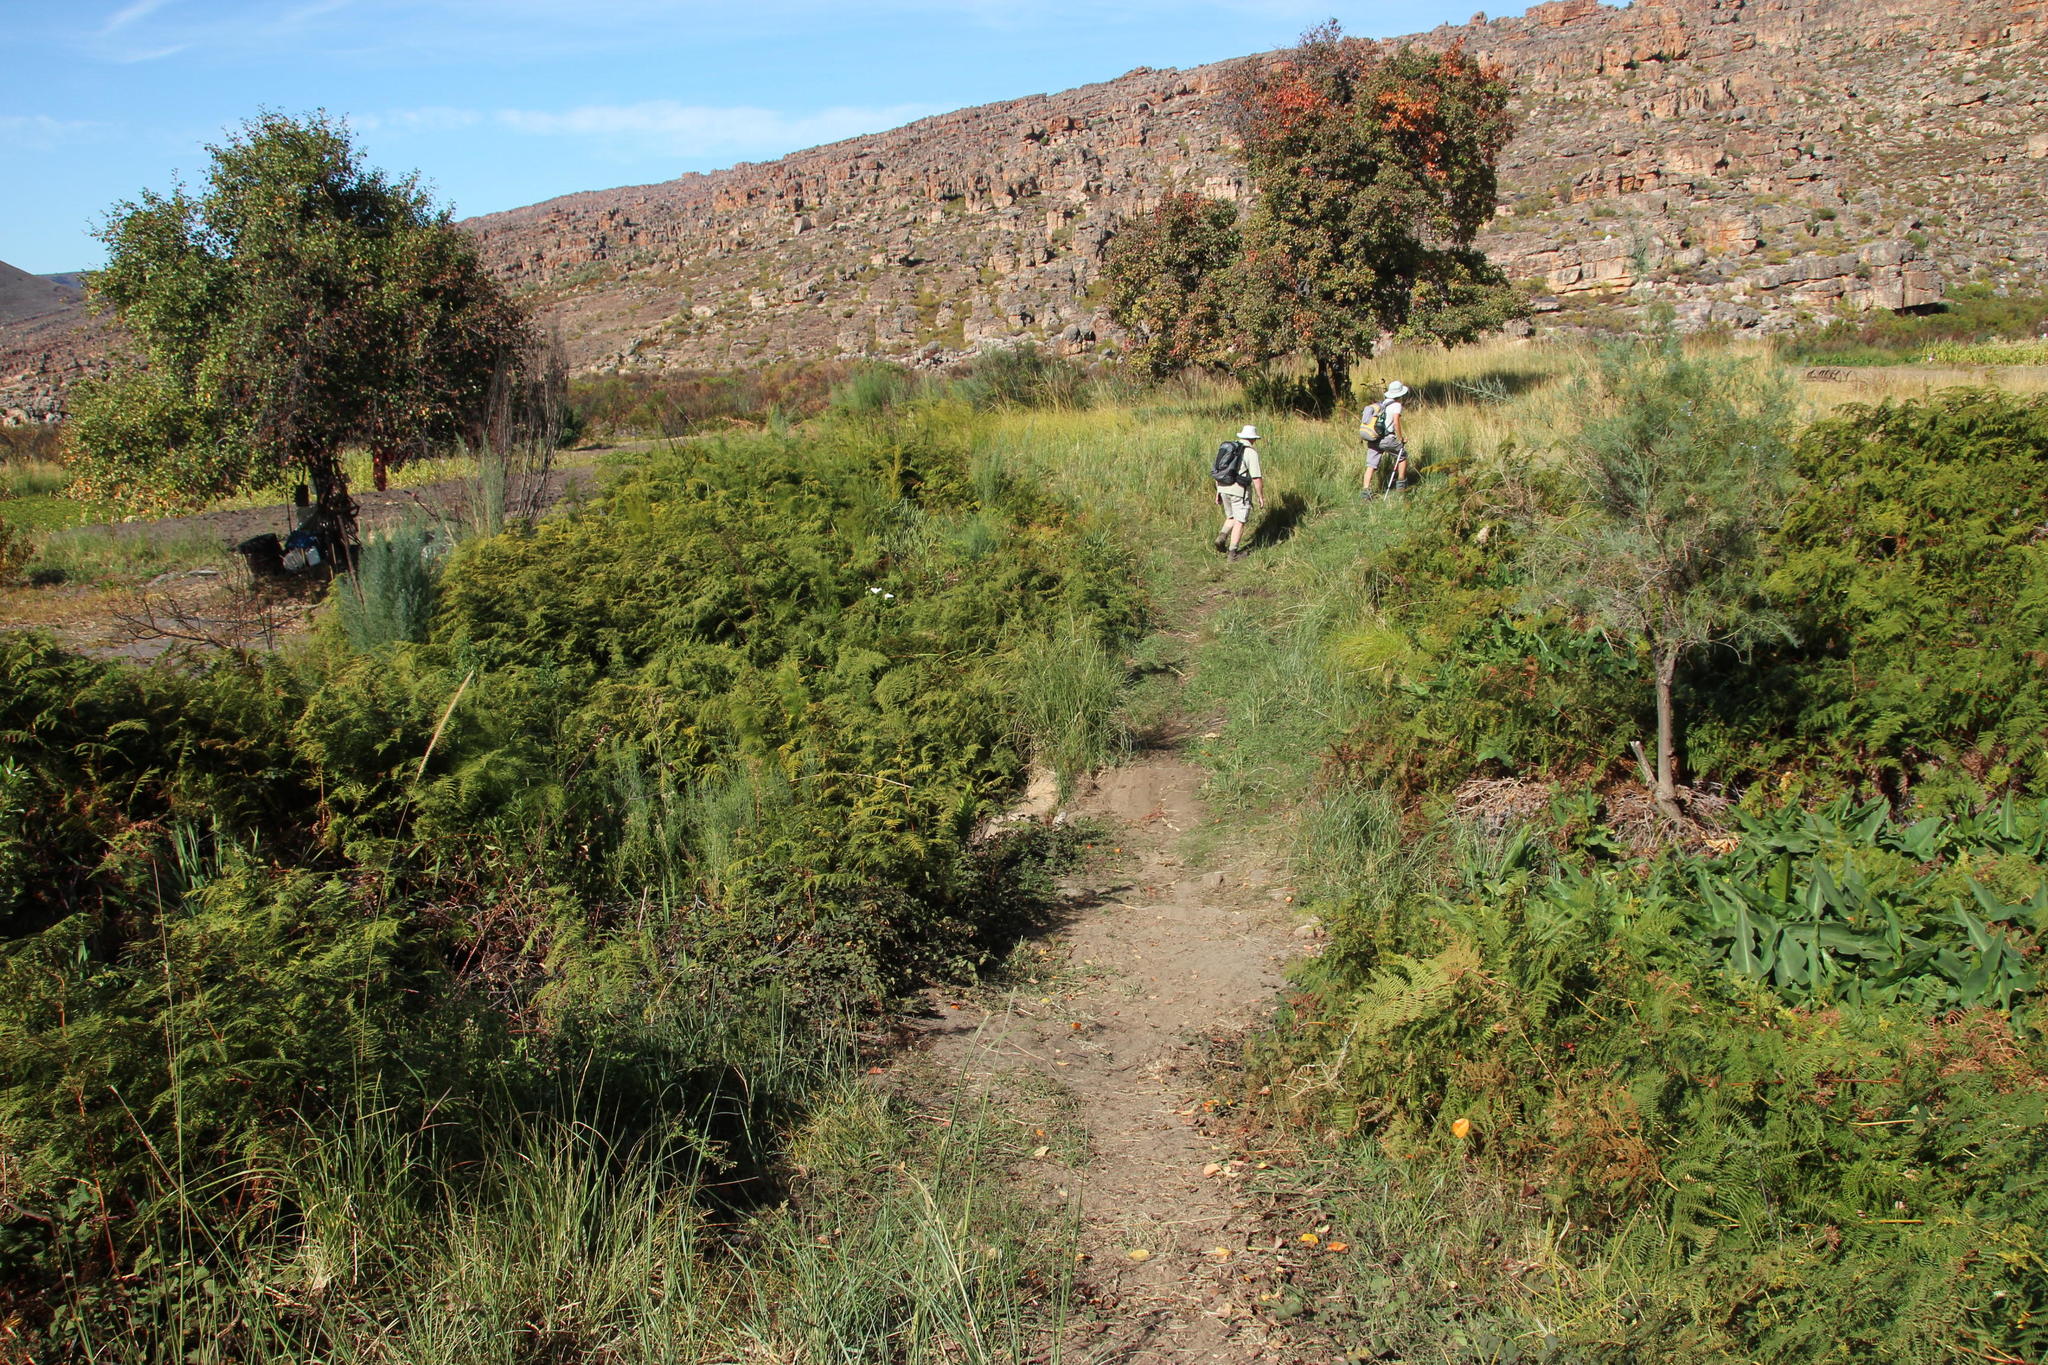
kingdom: Plantae
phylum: Tracheophyta
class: Polypodiopsida
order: Polypodiales
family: Dennstaedtiaceae
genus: Pteridium
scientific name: Pteridium aquilinum
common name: Bracken
